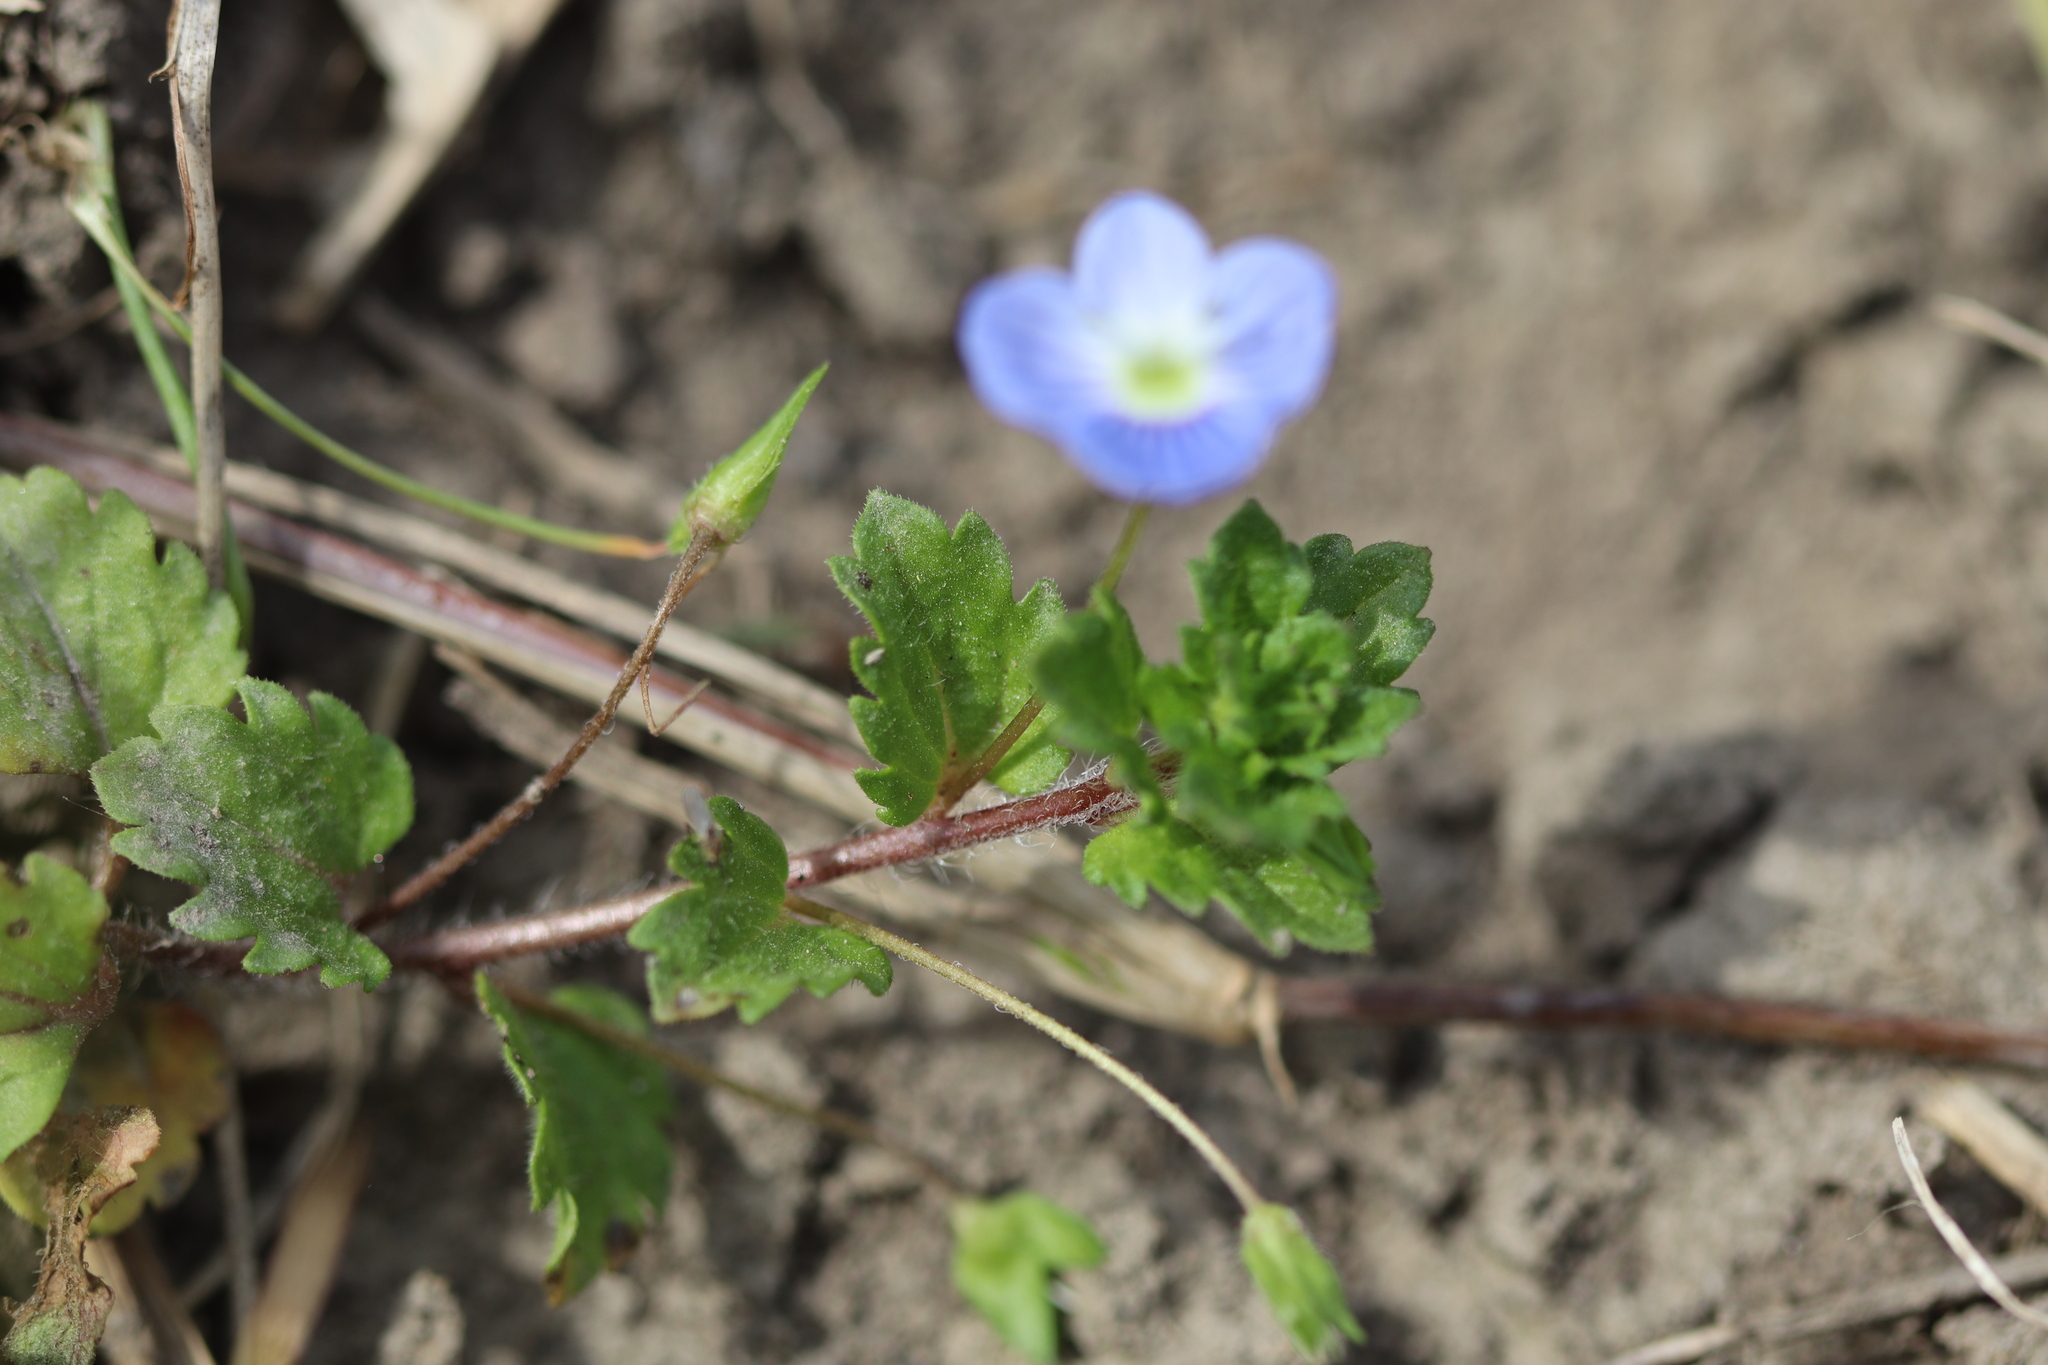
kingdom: Plantae
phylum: Tracheophyta
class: Magnoliopsida
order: Lamiales
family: Plantaginaceae
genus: Veronica
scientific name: Veronica persica
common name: Common field-speedwell
